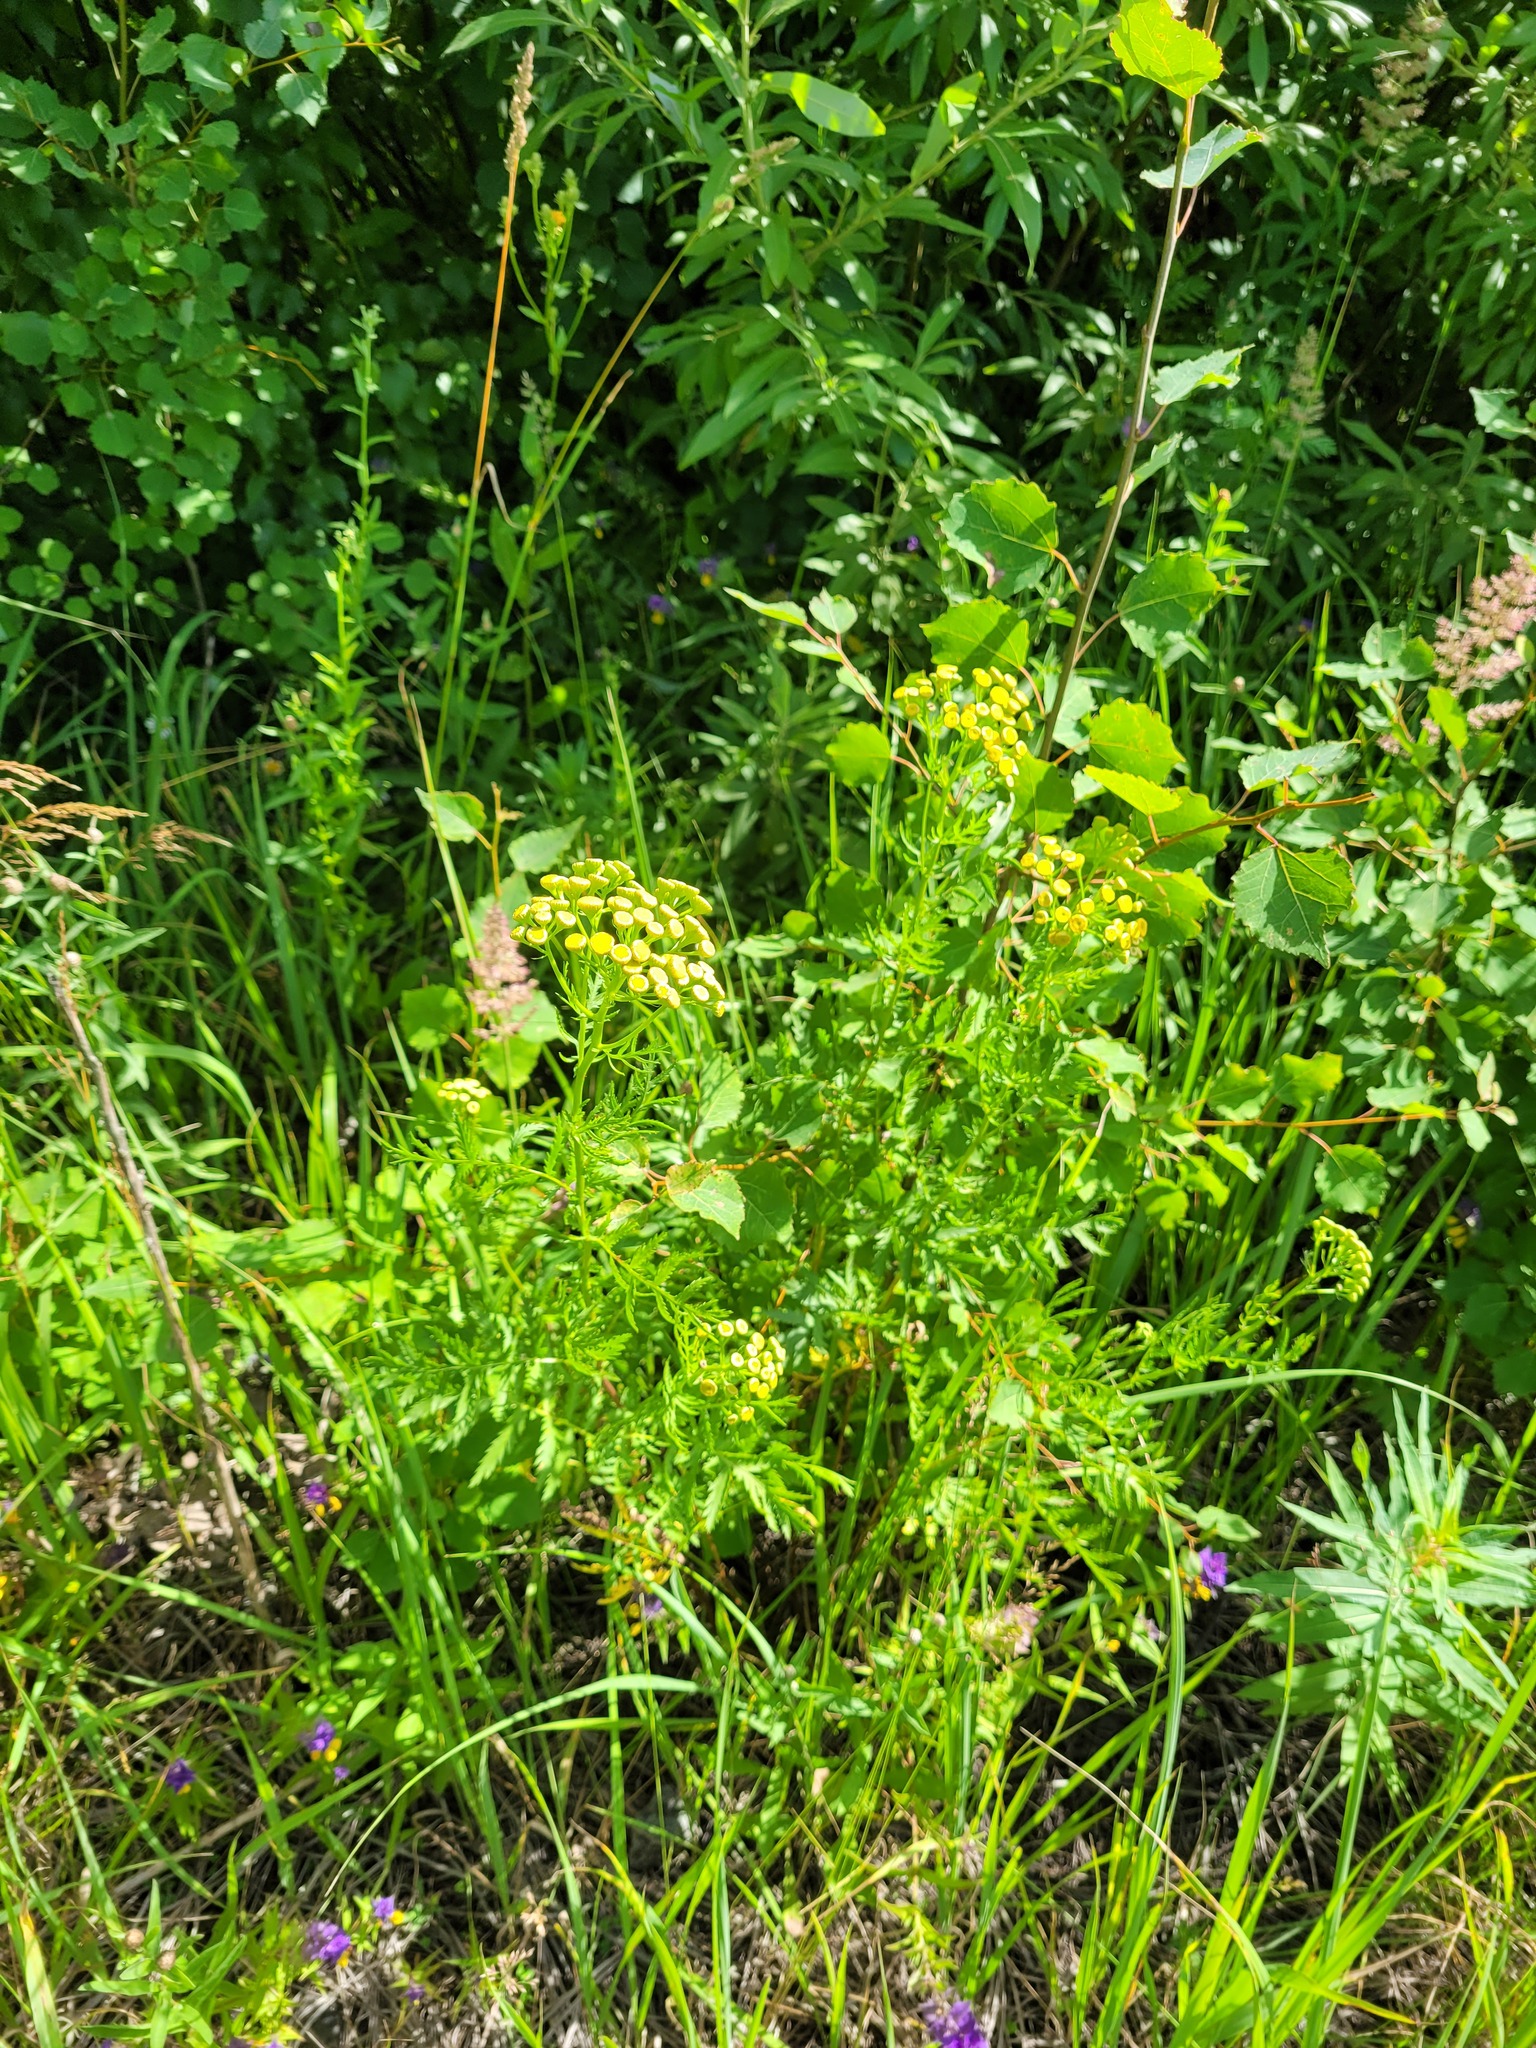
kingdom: Plantae
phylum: Tracheophyta
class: Magnoliopsida
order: Asterales
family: Asteraceae
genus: Tanacetum
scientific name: Tanacetum vulgare
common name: Common tansy
